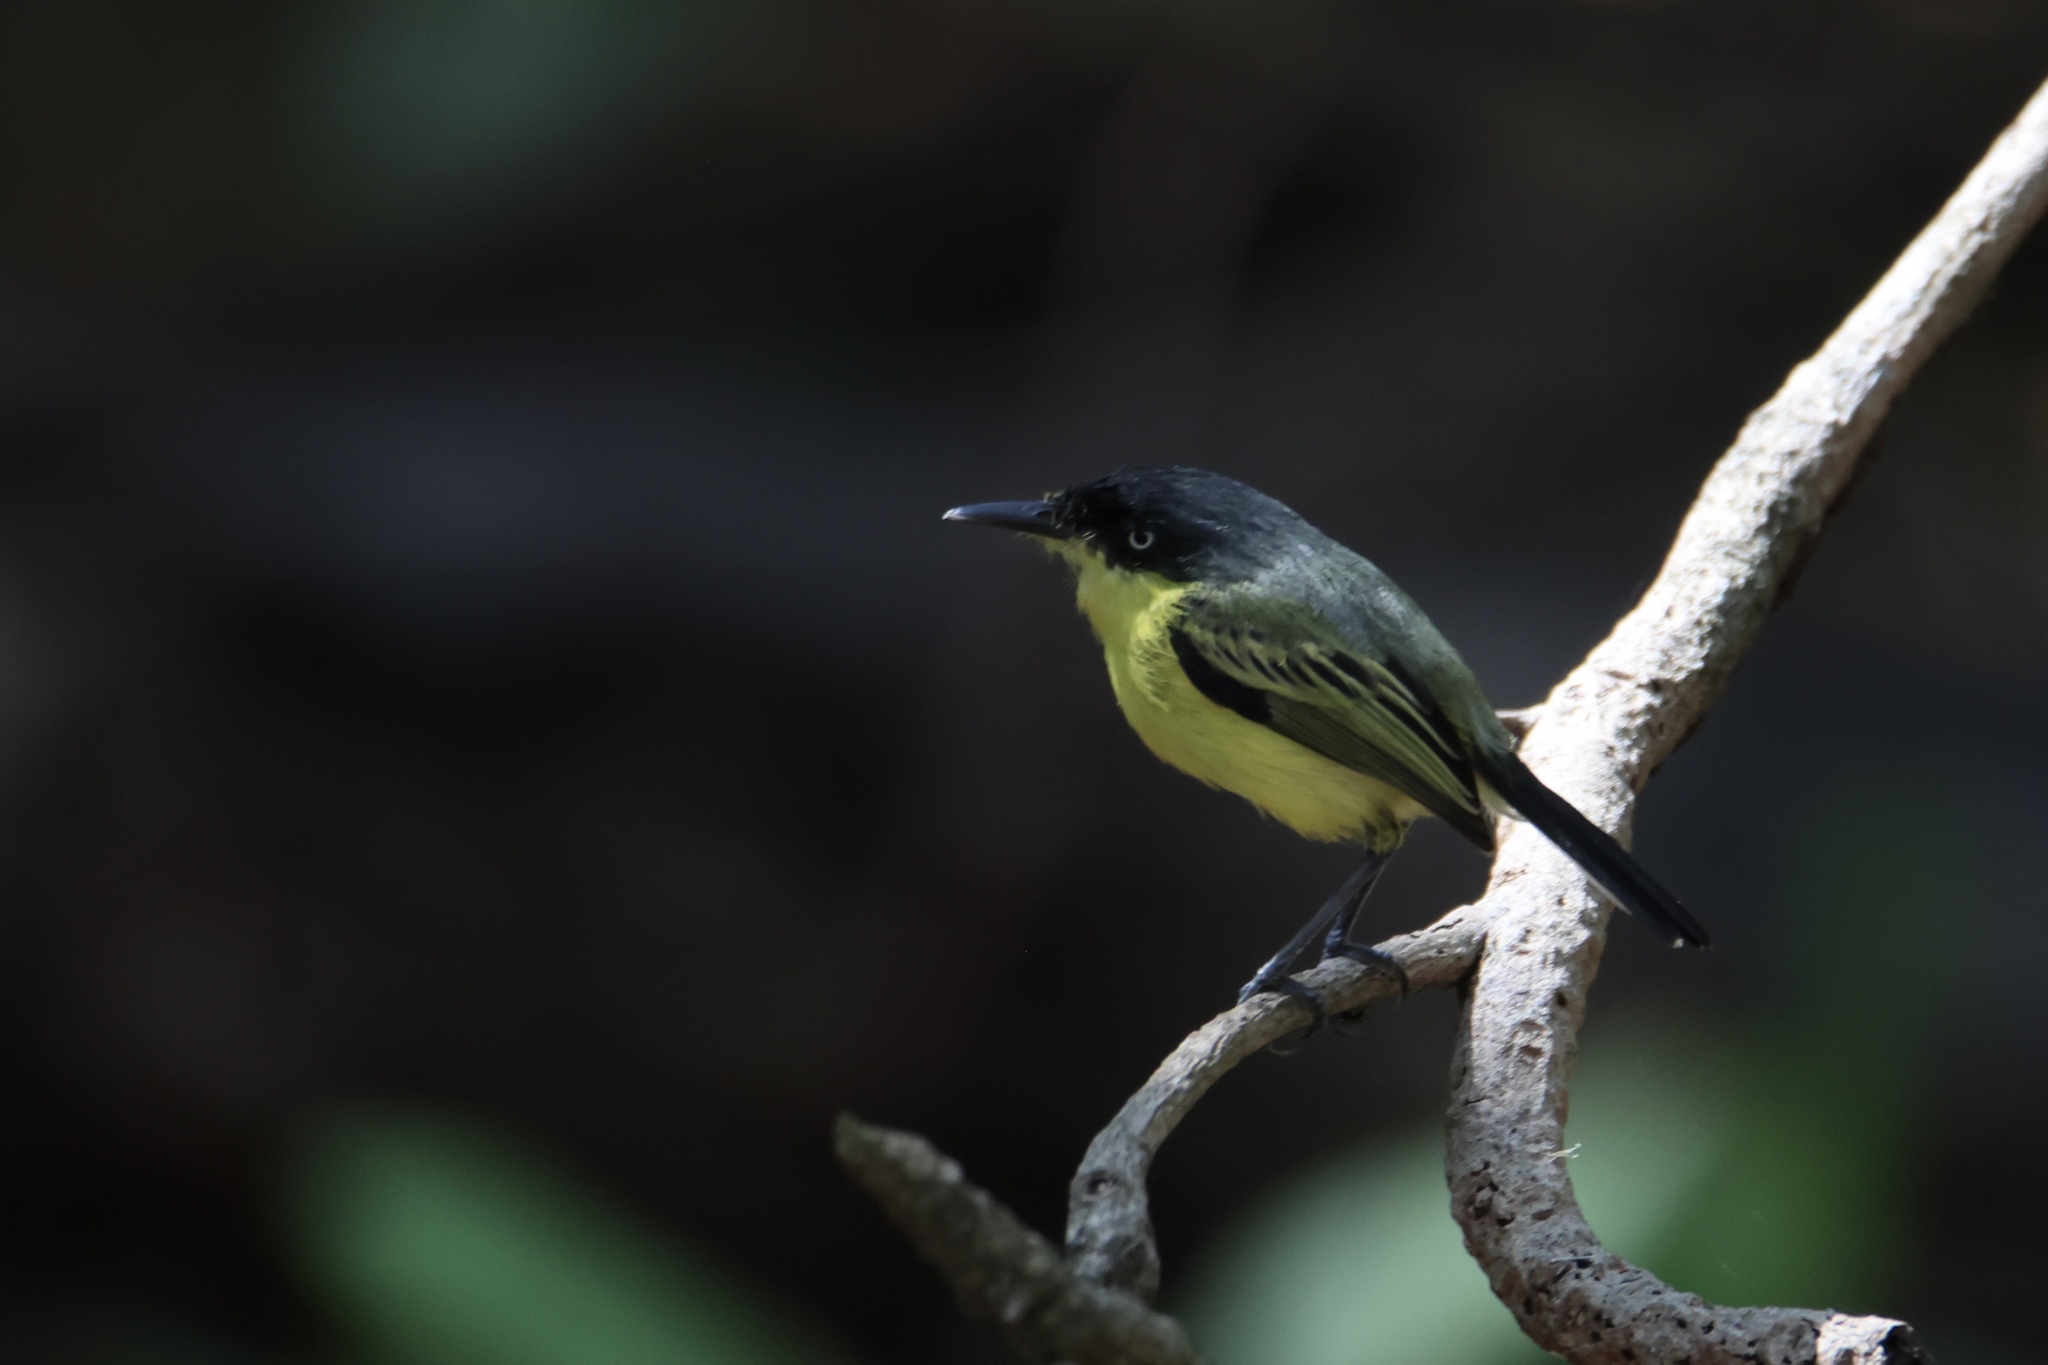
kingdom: Animalia
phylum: Chordata
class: Aves
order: Passeriformes
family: Tyrannidae
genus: Todirostrum
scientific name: Todirostrum cinereum
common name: Common tody-flycatcher
